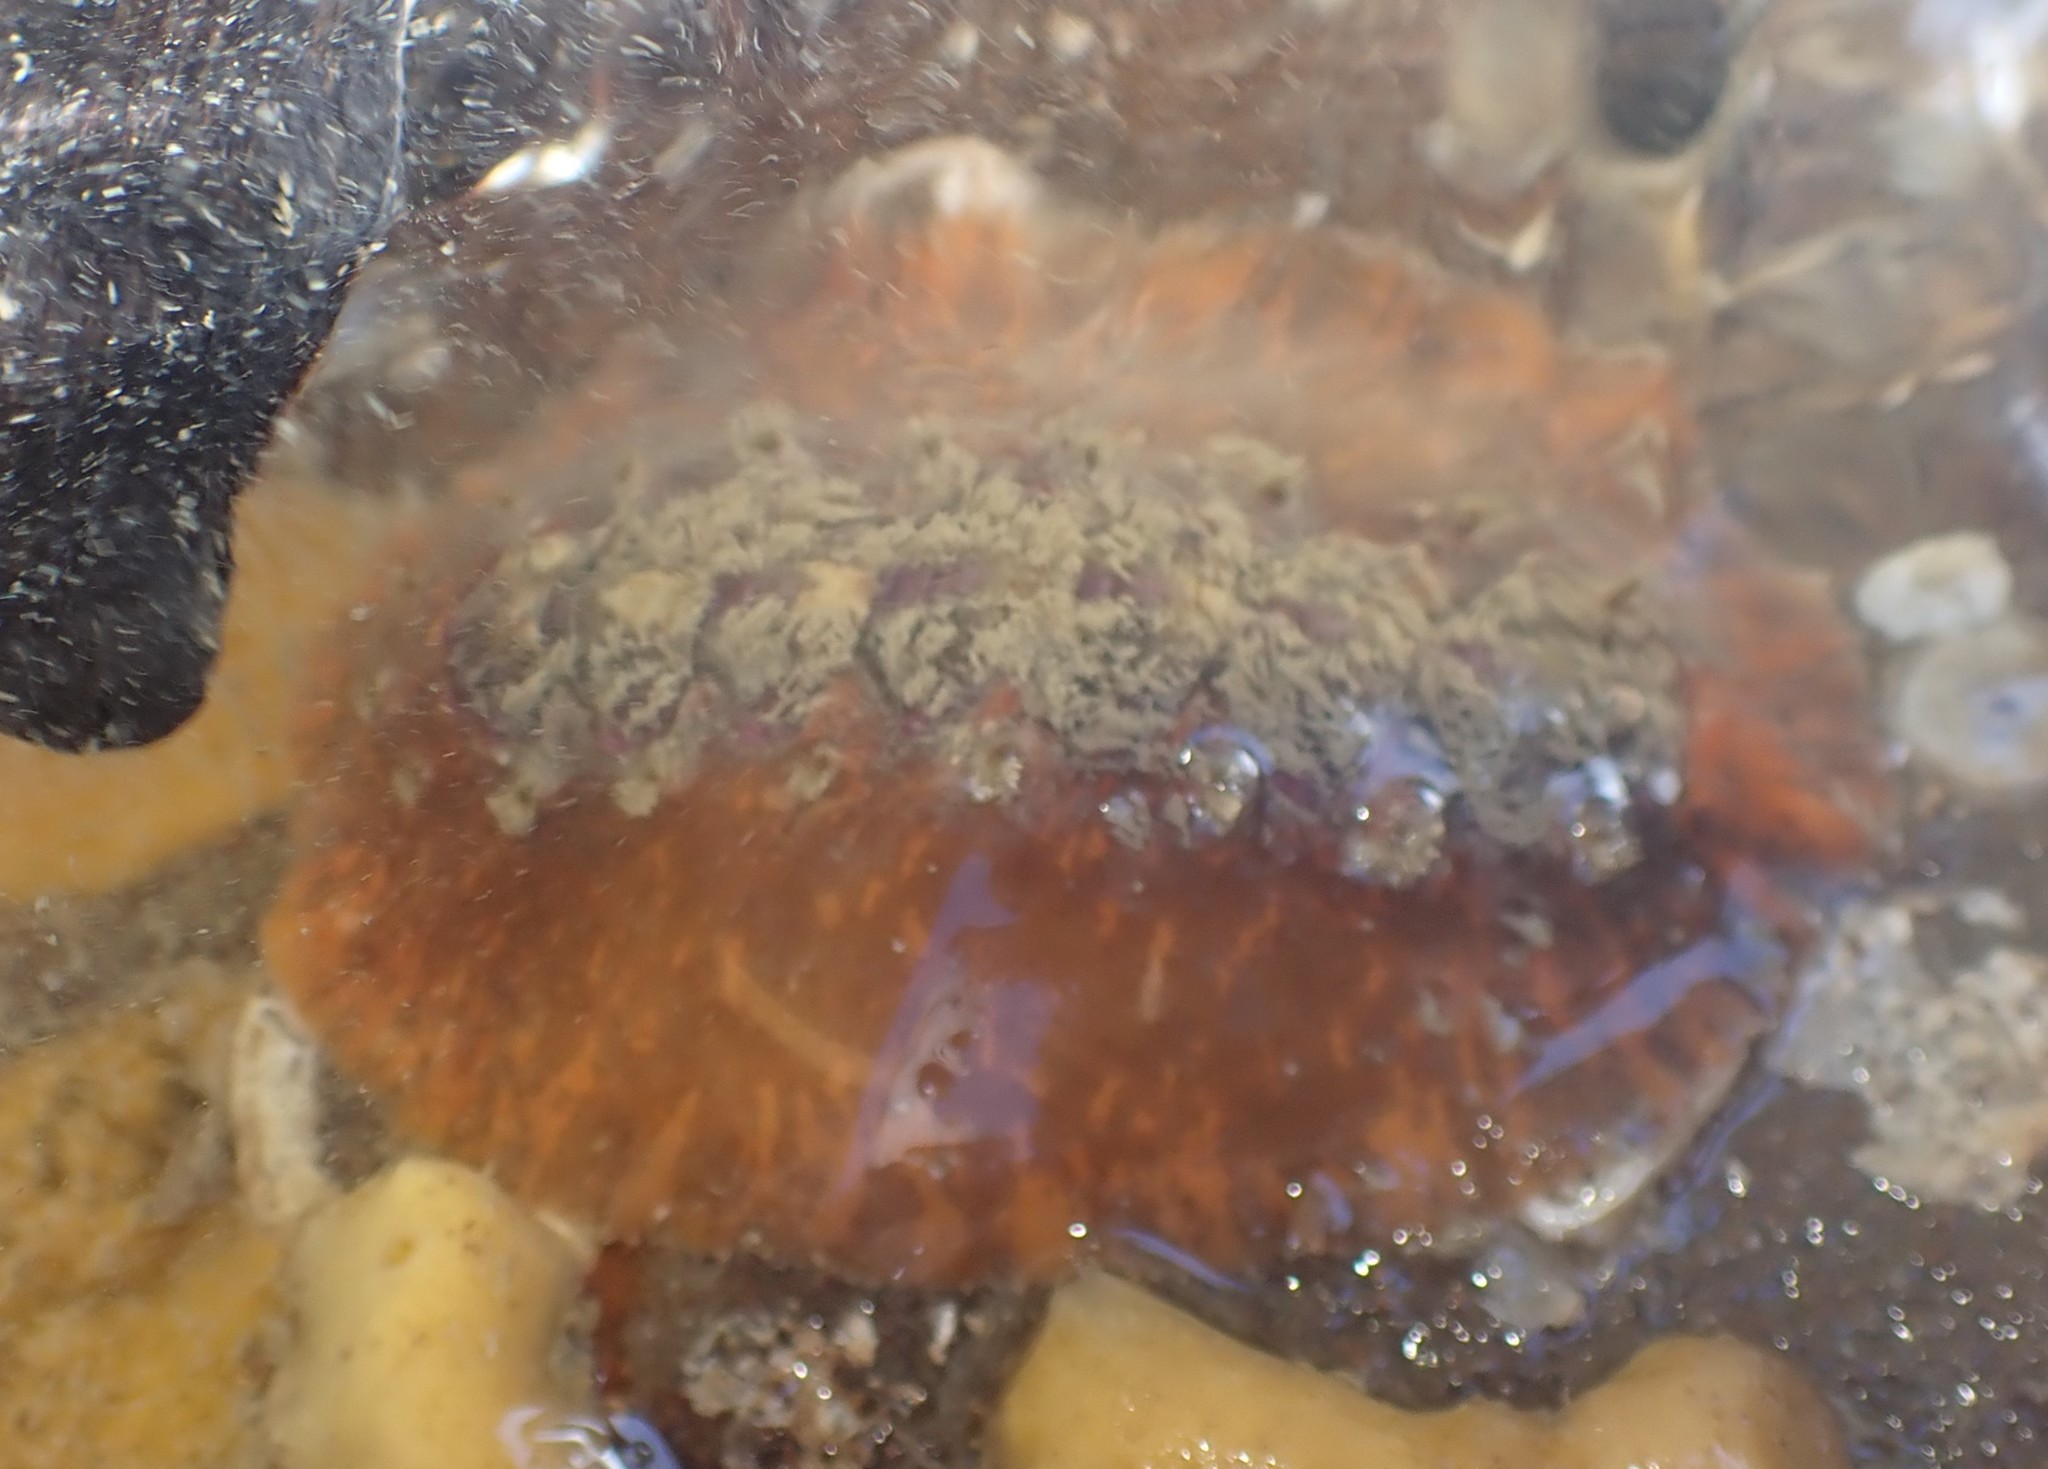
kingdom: Animalia
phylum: Mollusca
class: Polyplacophora
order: Chitonida
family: Acanthochitonidae
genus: Notoplax
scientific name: Notoplax violacea
